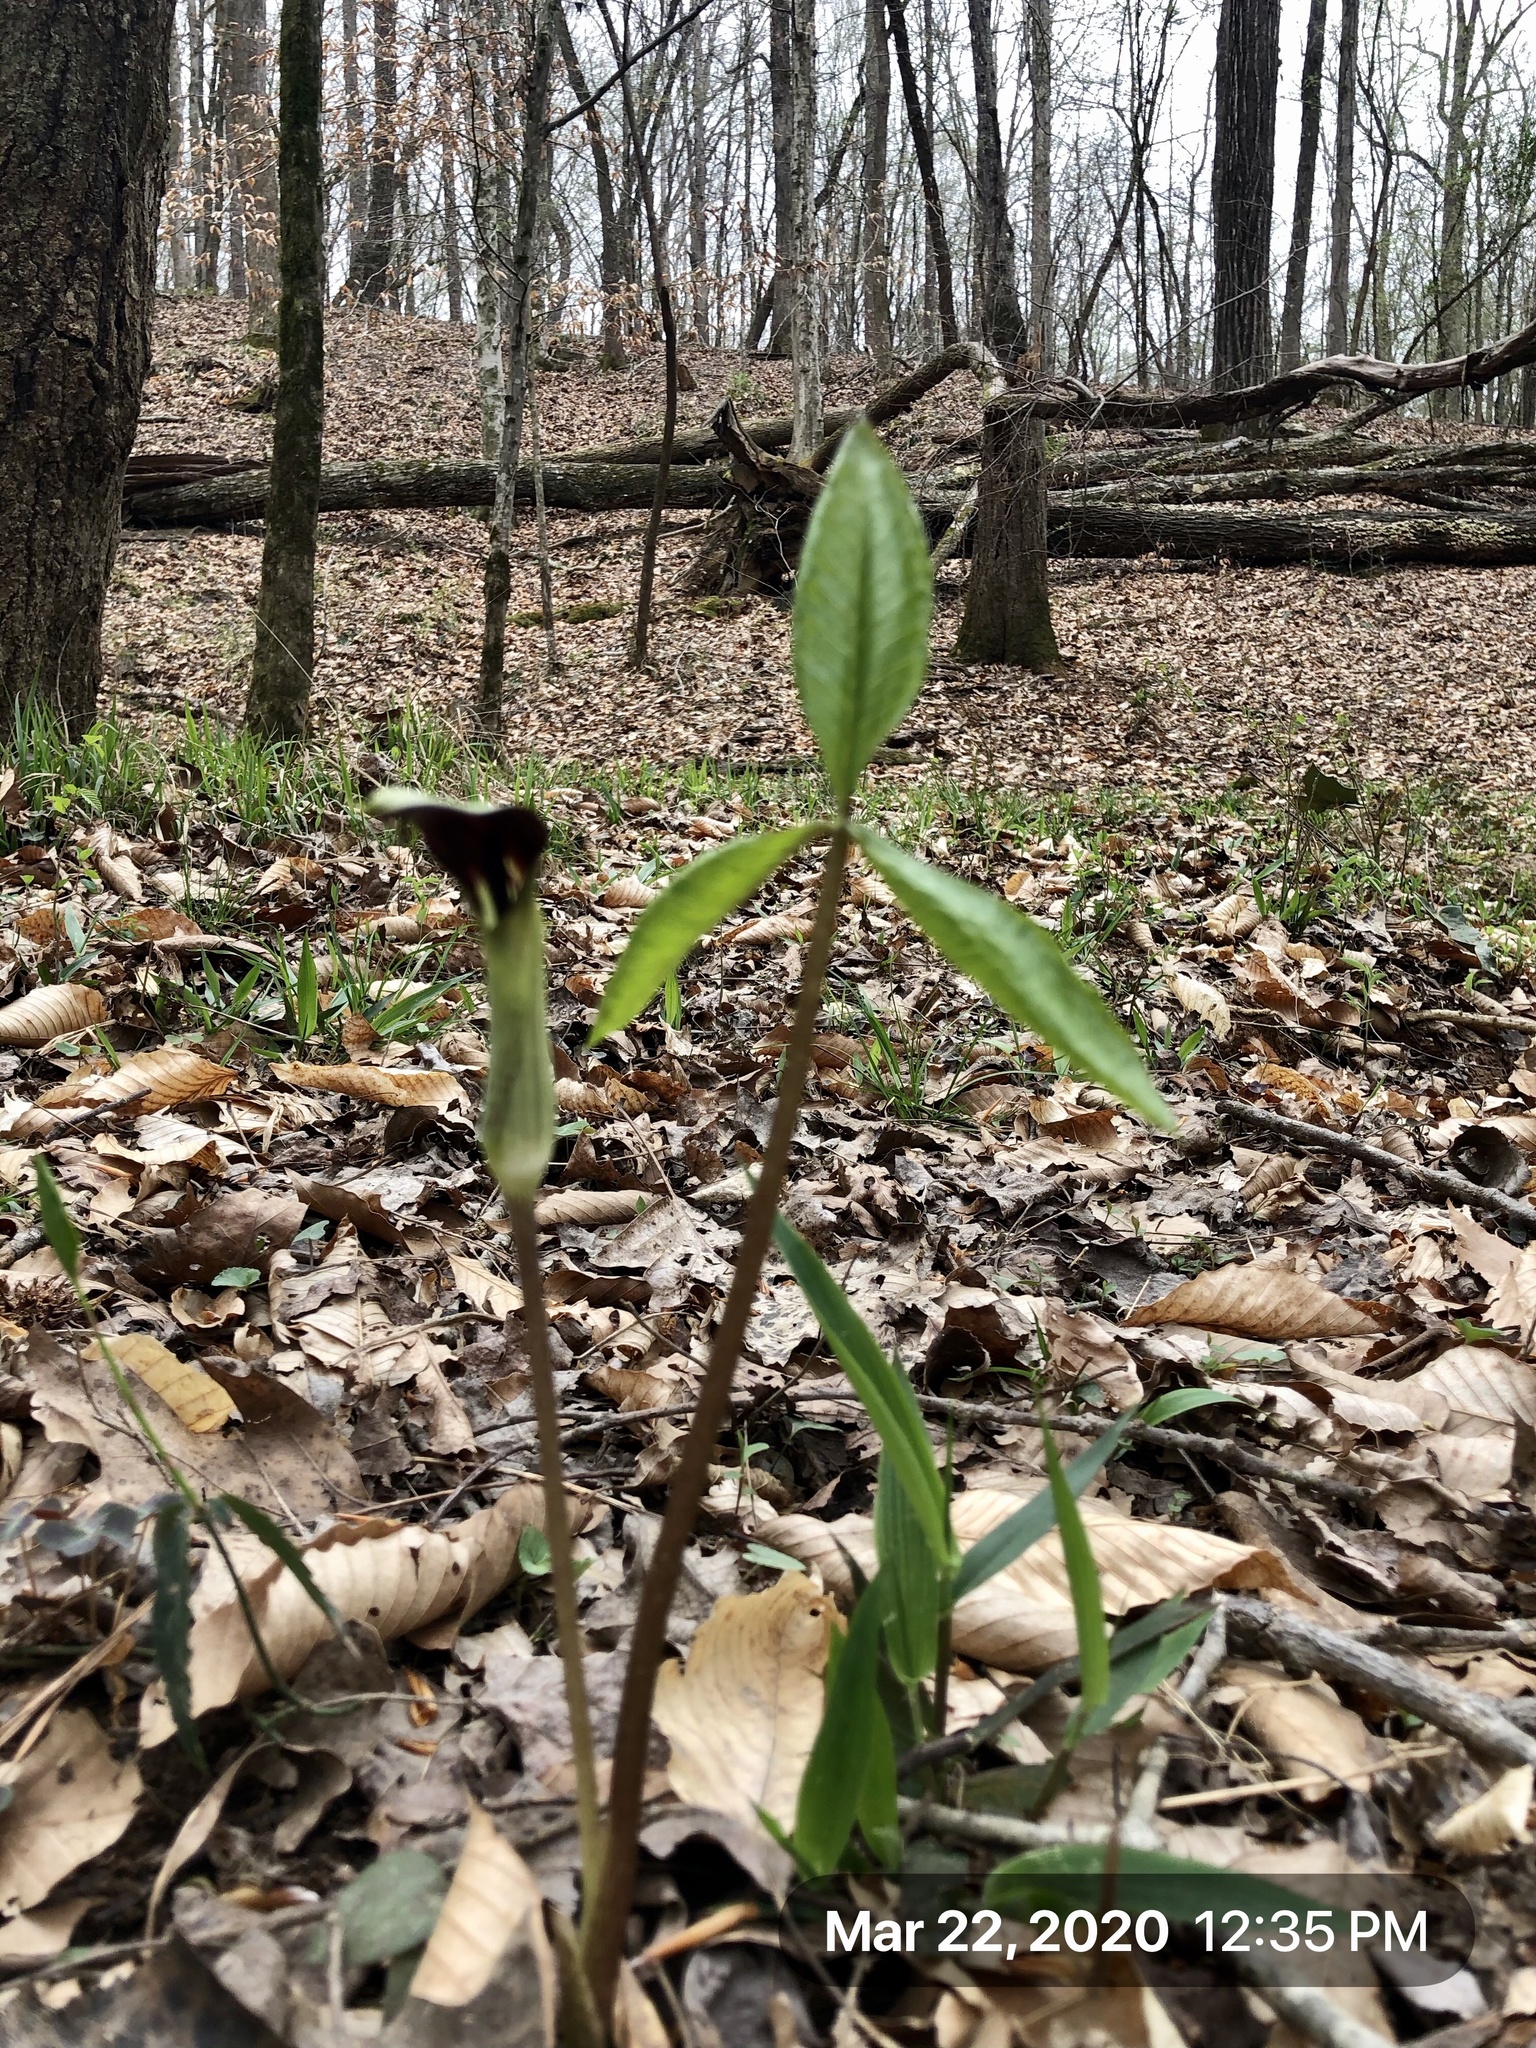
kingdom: Plantae
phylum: Tracheophyta
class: Liliopsida
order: Alismatales
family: Araceae
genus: Arisaema
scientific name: Arisaema triphyllum
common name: Jack-in-the-pulpit
